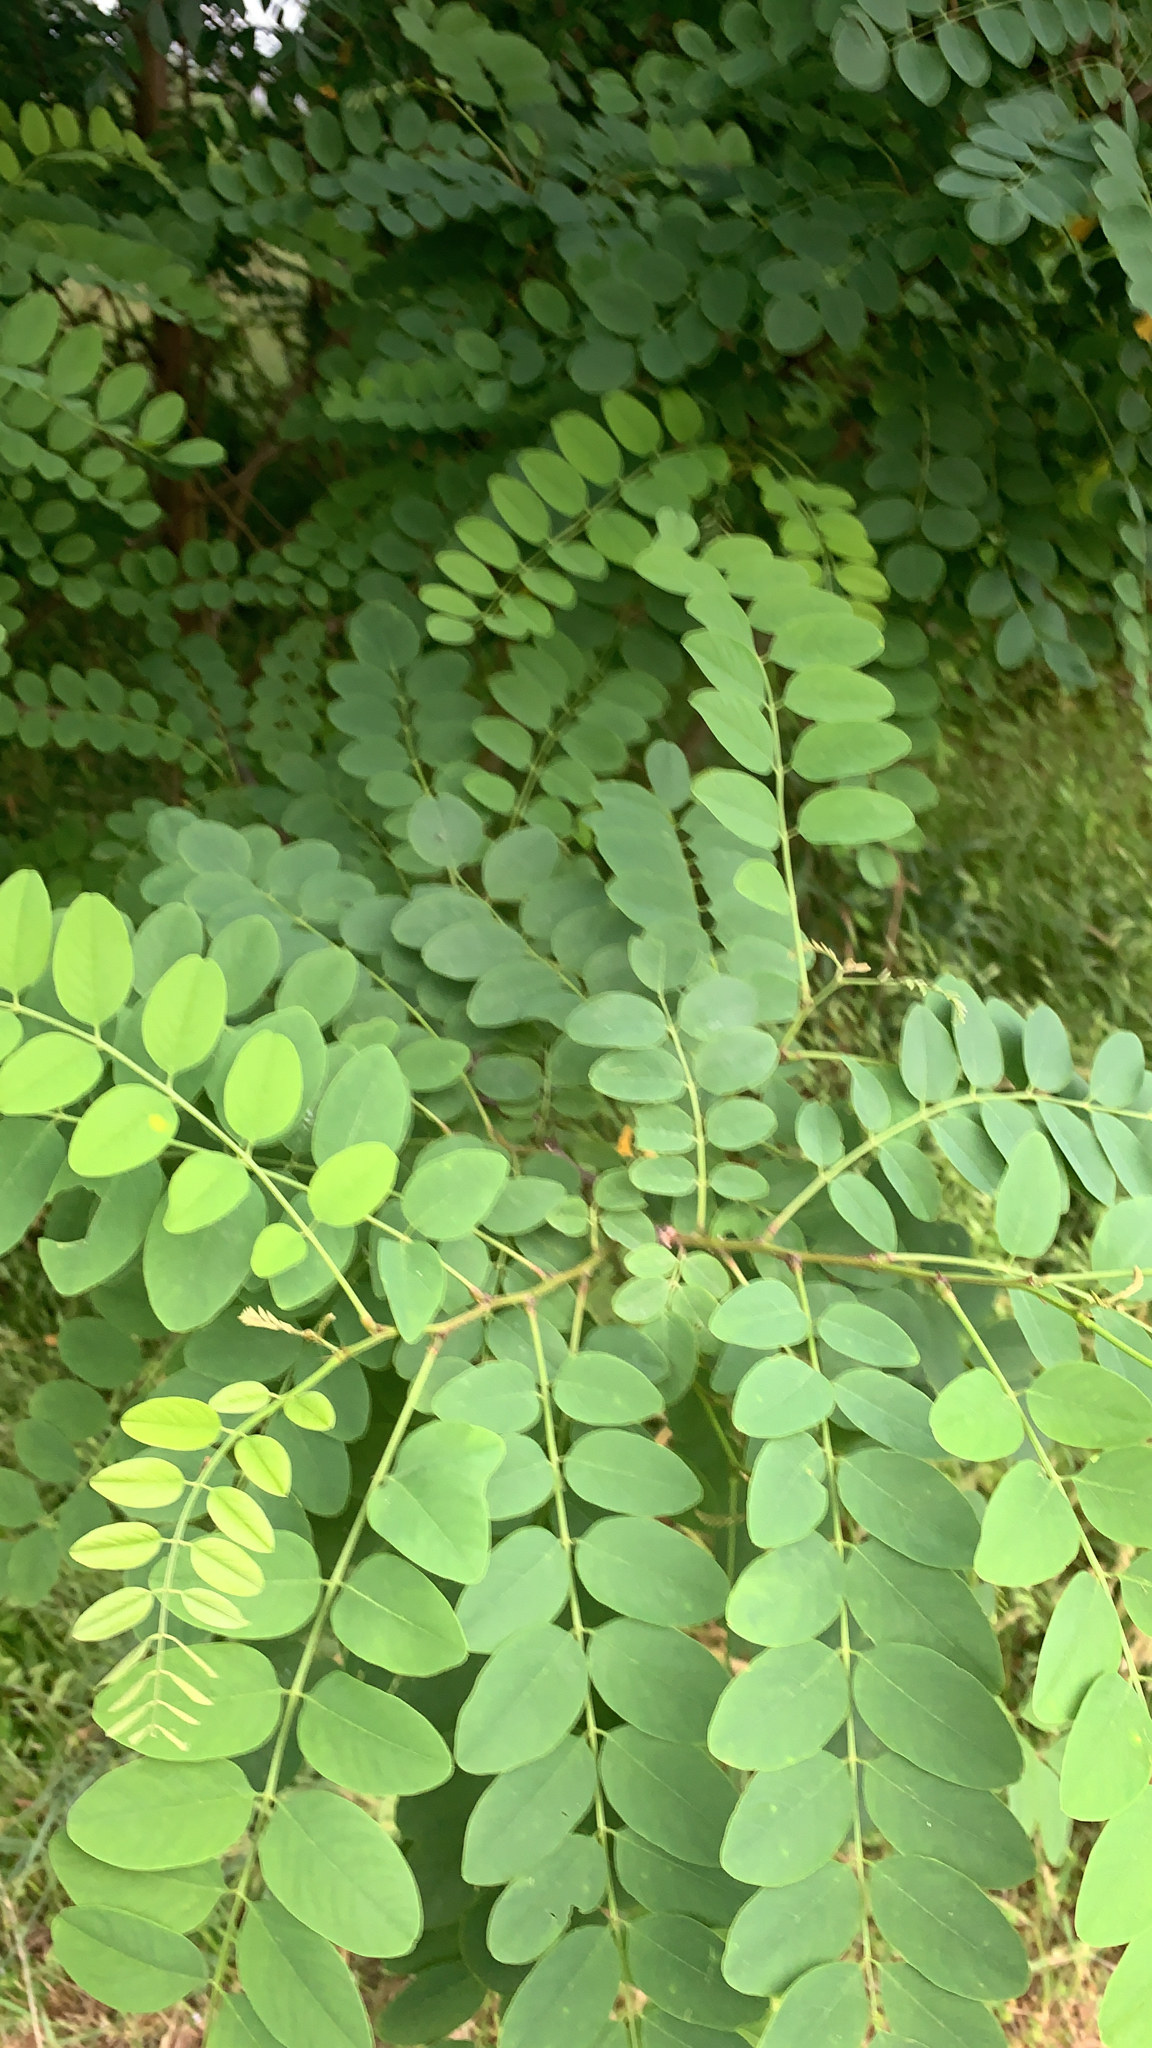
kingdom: Plantae
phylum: Tracheophyta
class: Magnoliopsida
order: Fabales
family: Fabaceae
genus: Robinia
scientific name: Robinia pseudoacacia
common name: Black locust
